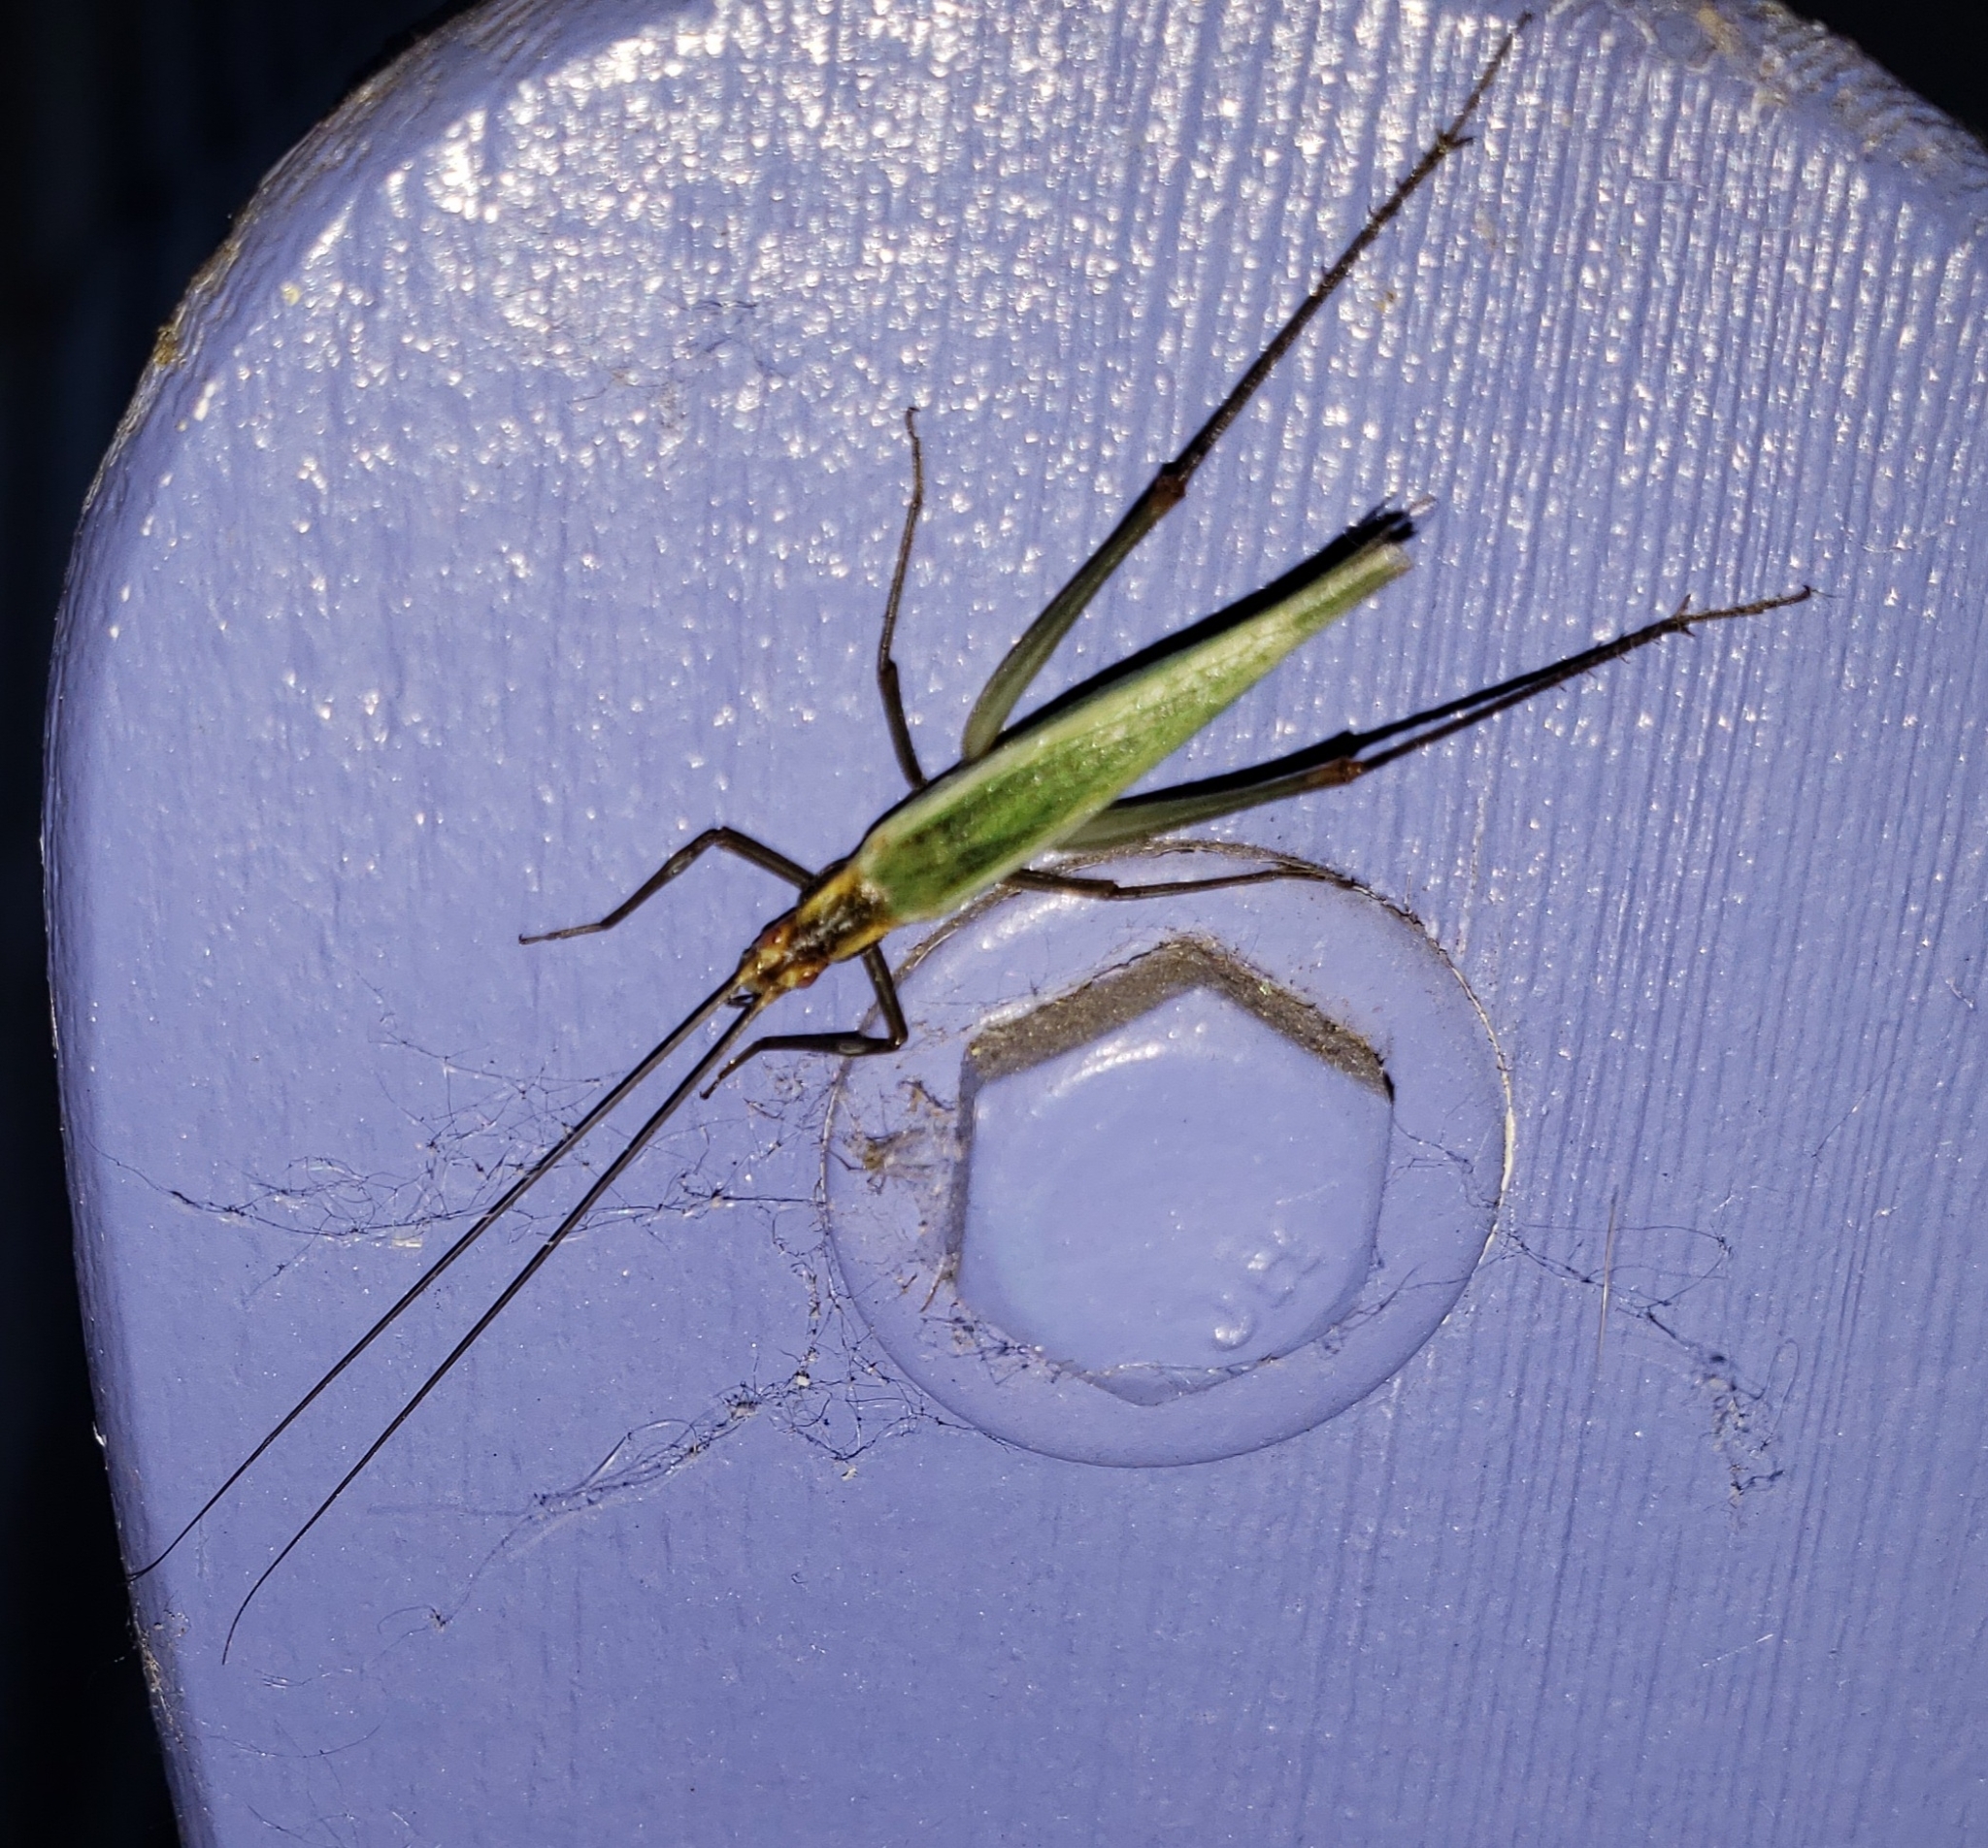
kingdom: Animalia
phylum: Arthropoda
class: Insecta
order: Orthoptera
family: Gryllidae
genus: Oecanthus
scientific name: Oecanthus pini
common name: Pine tree cricket
